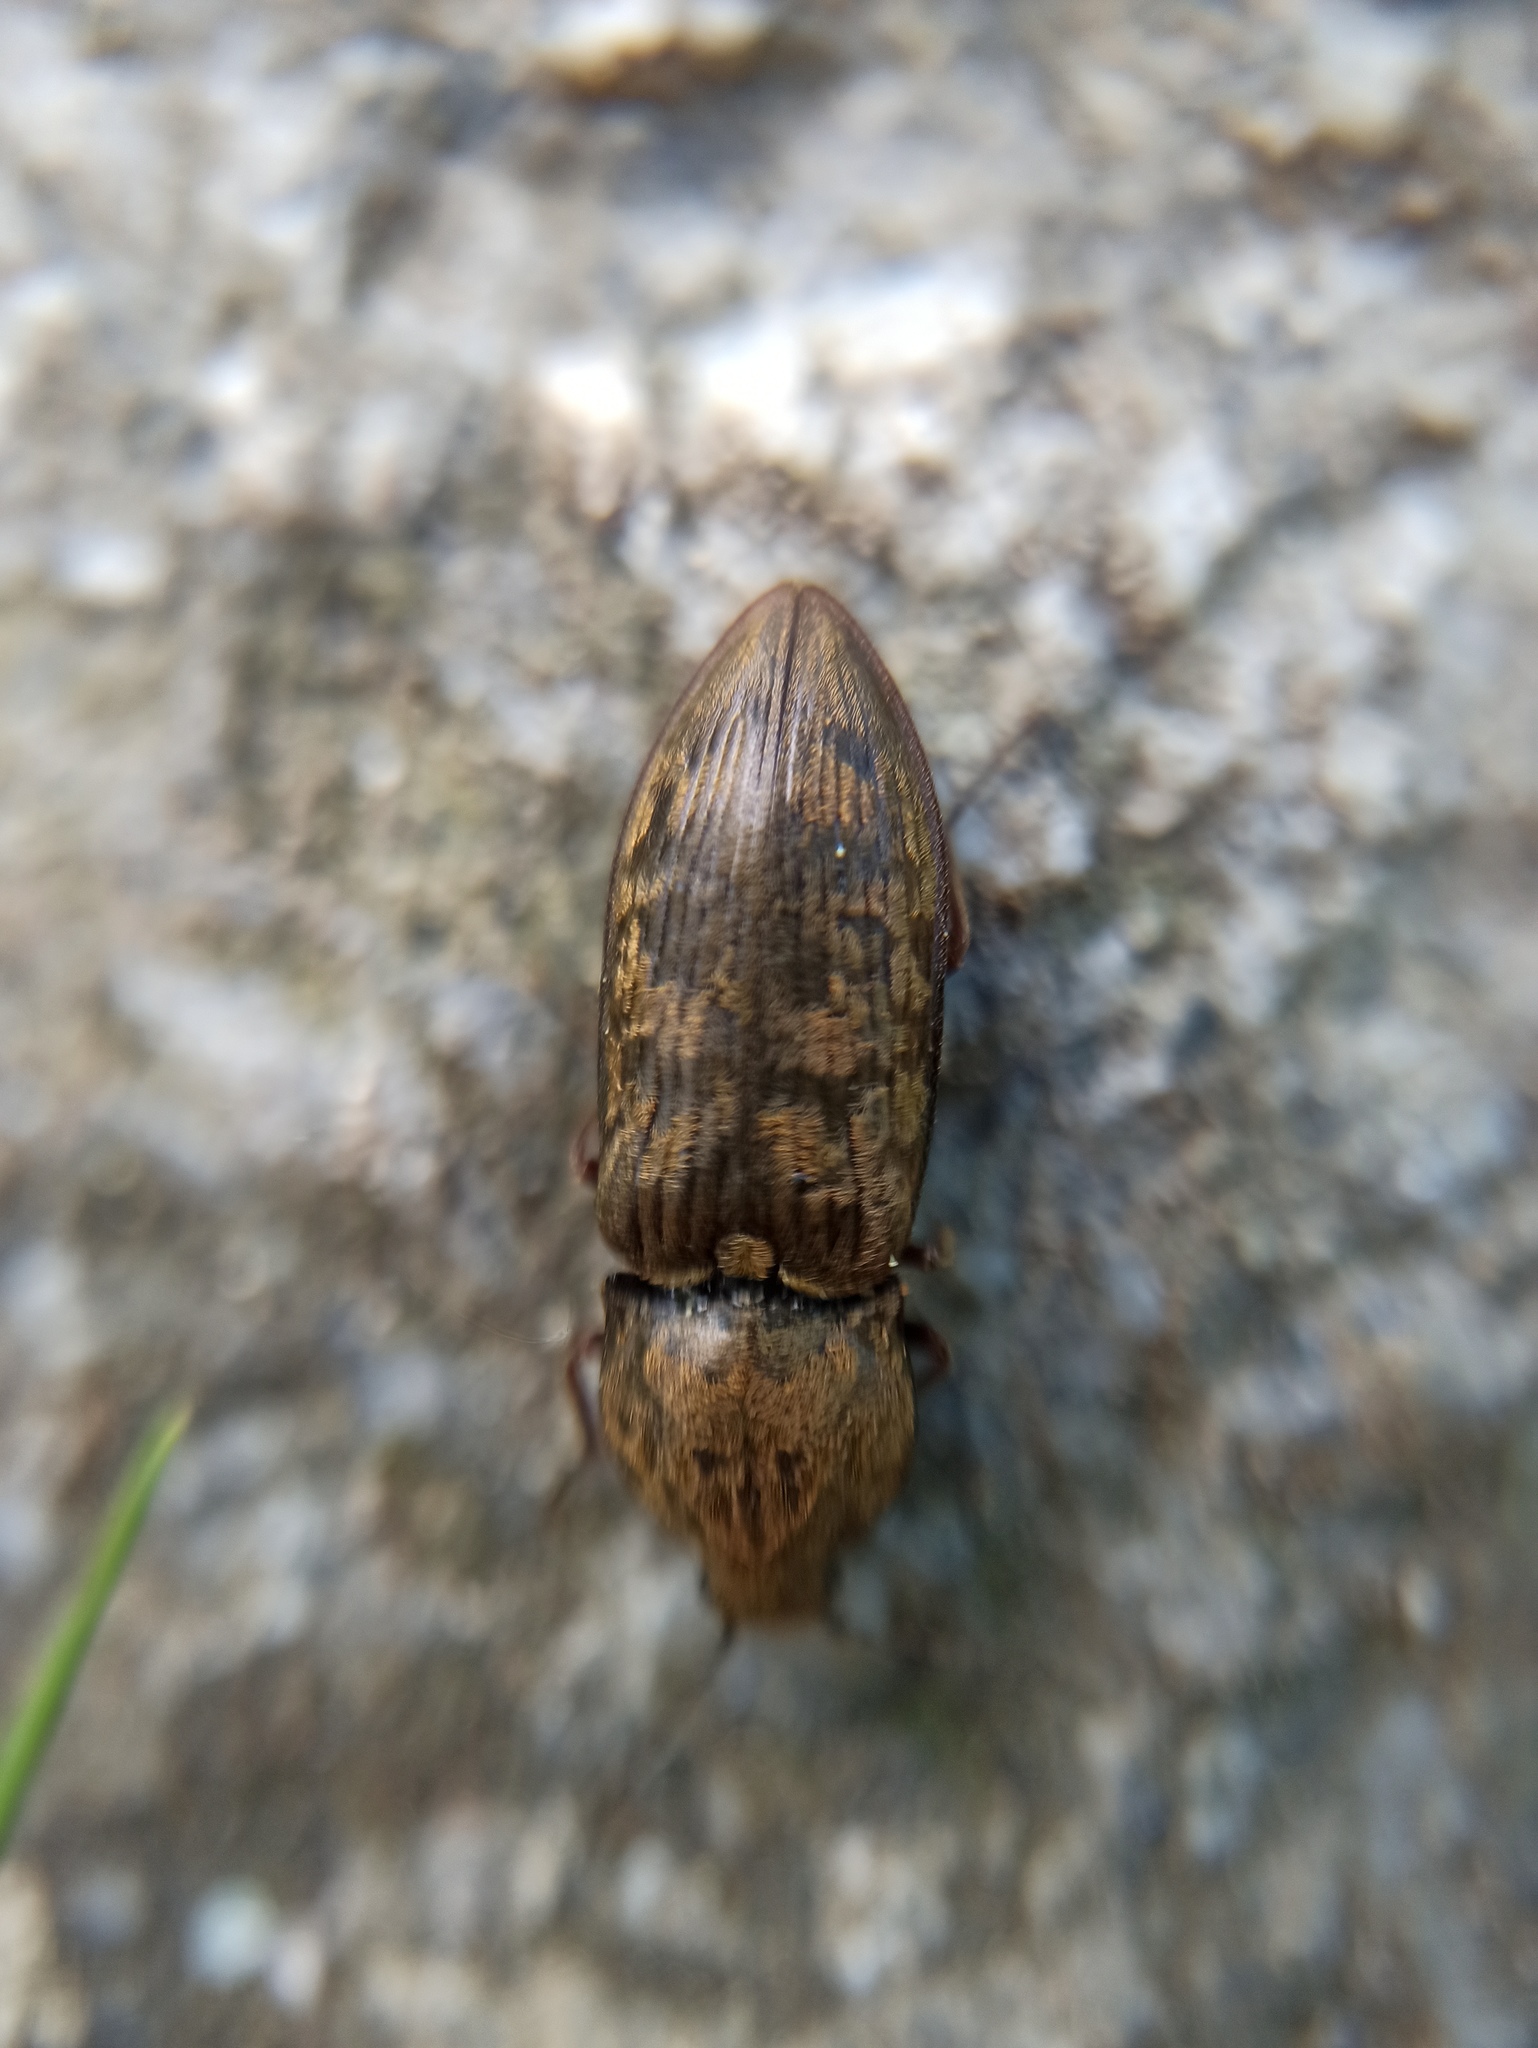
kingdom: Animalia
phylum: Arthropoda
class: Insecta
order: Coleoptera
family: Elateridae
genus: Prosternon
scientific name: Prosternon tessellatum
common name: Chequered click beetle
